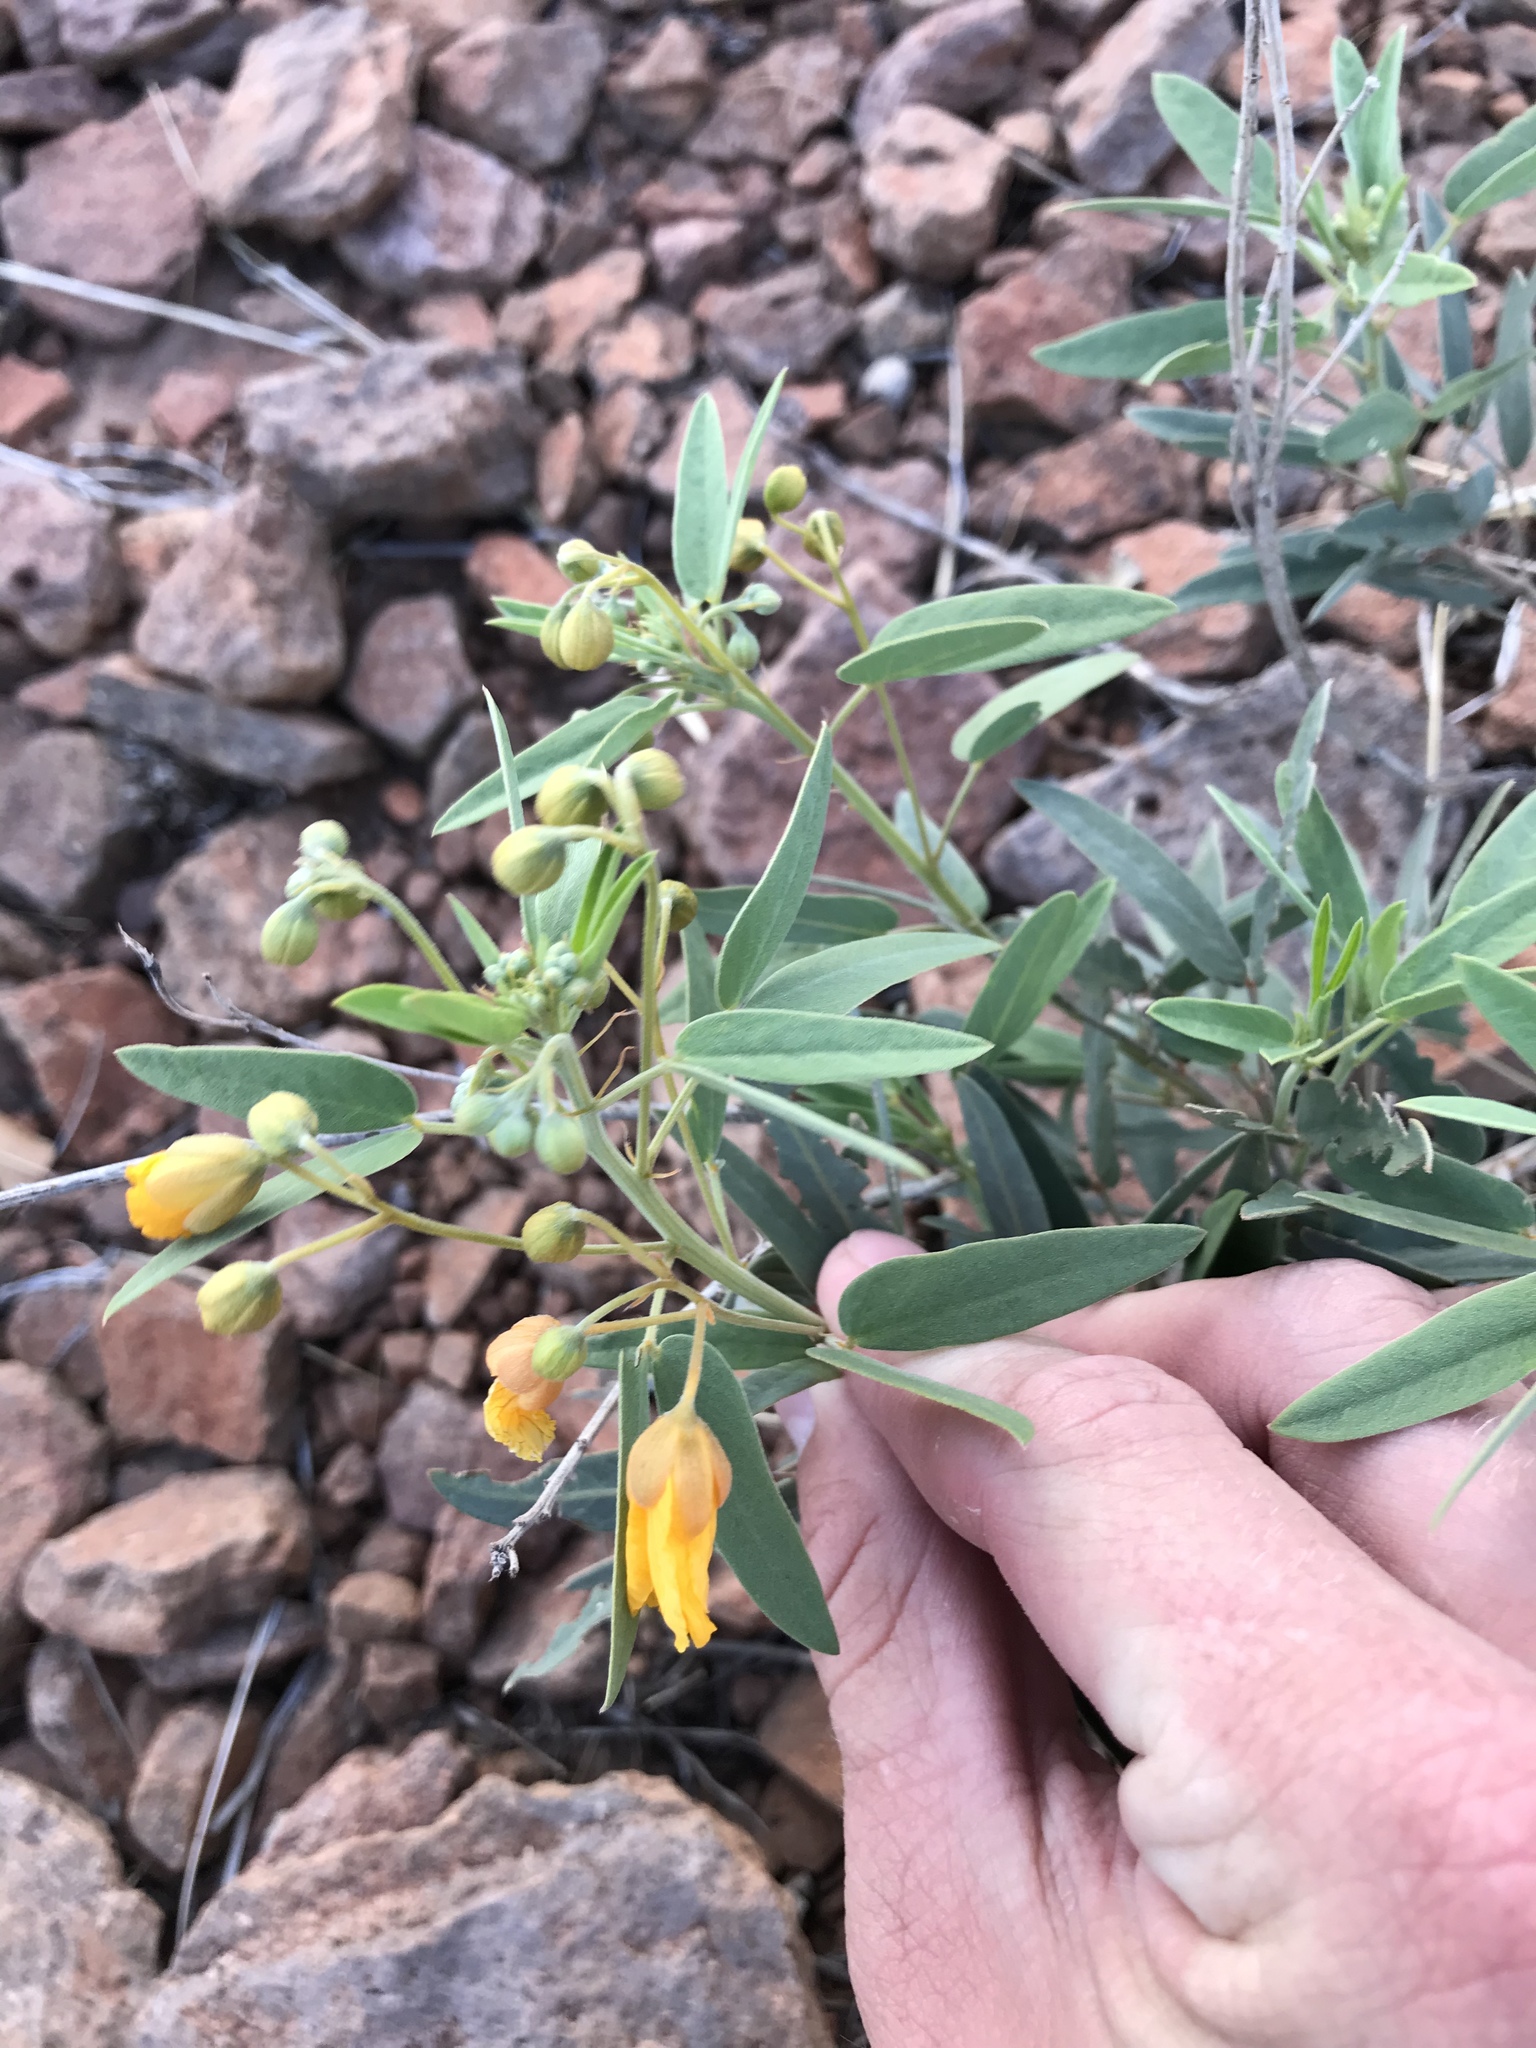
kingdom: Plantae
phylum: Tracheophyta
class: Magnoliopsida
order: Fabales
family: Fabaceae
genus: Senna
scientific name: Senna roemeriana
